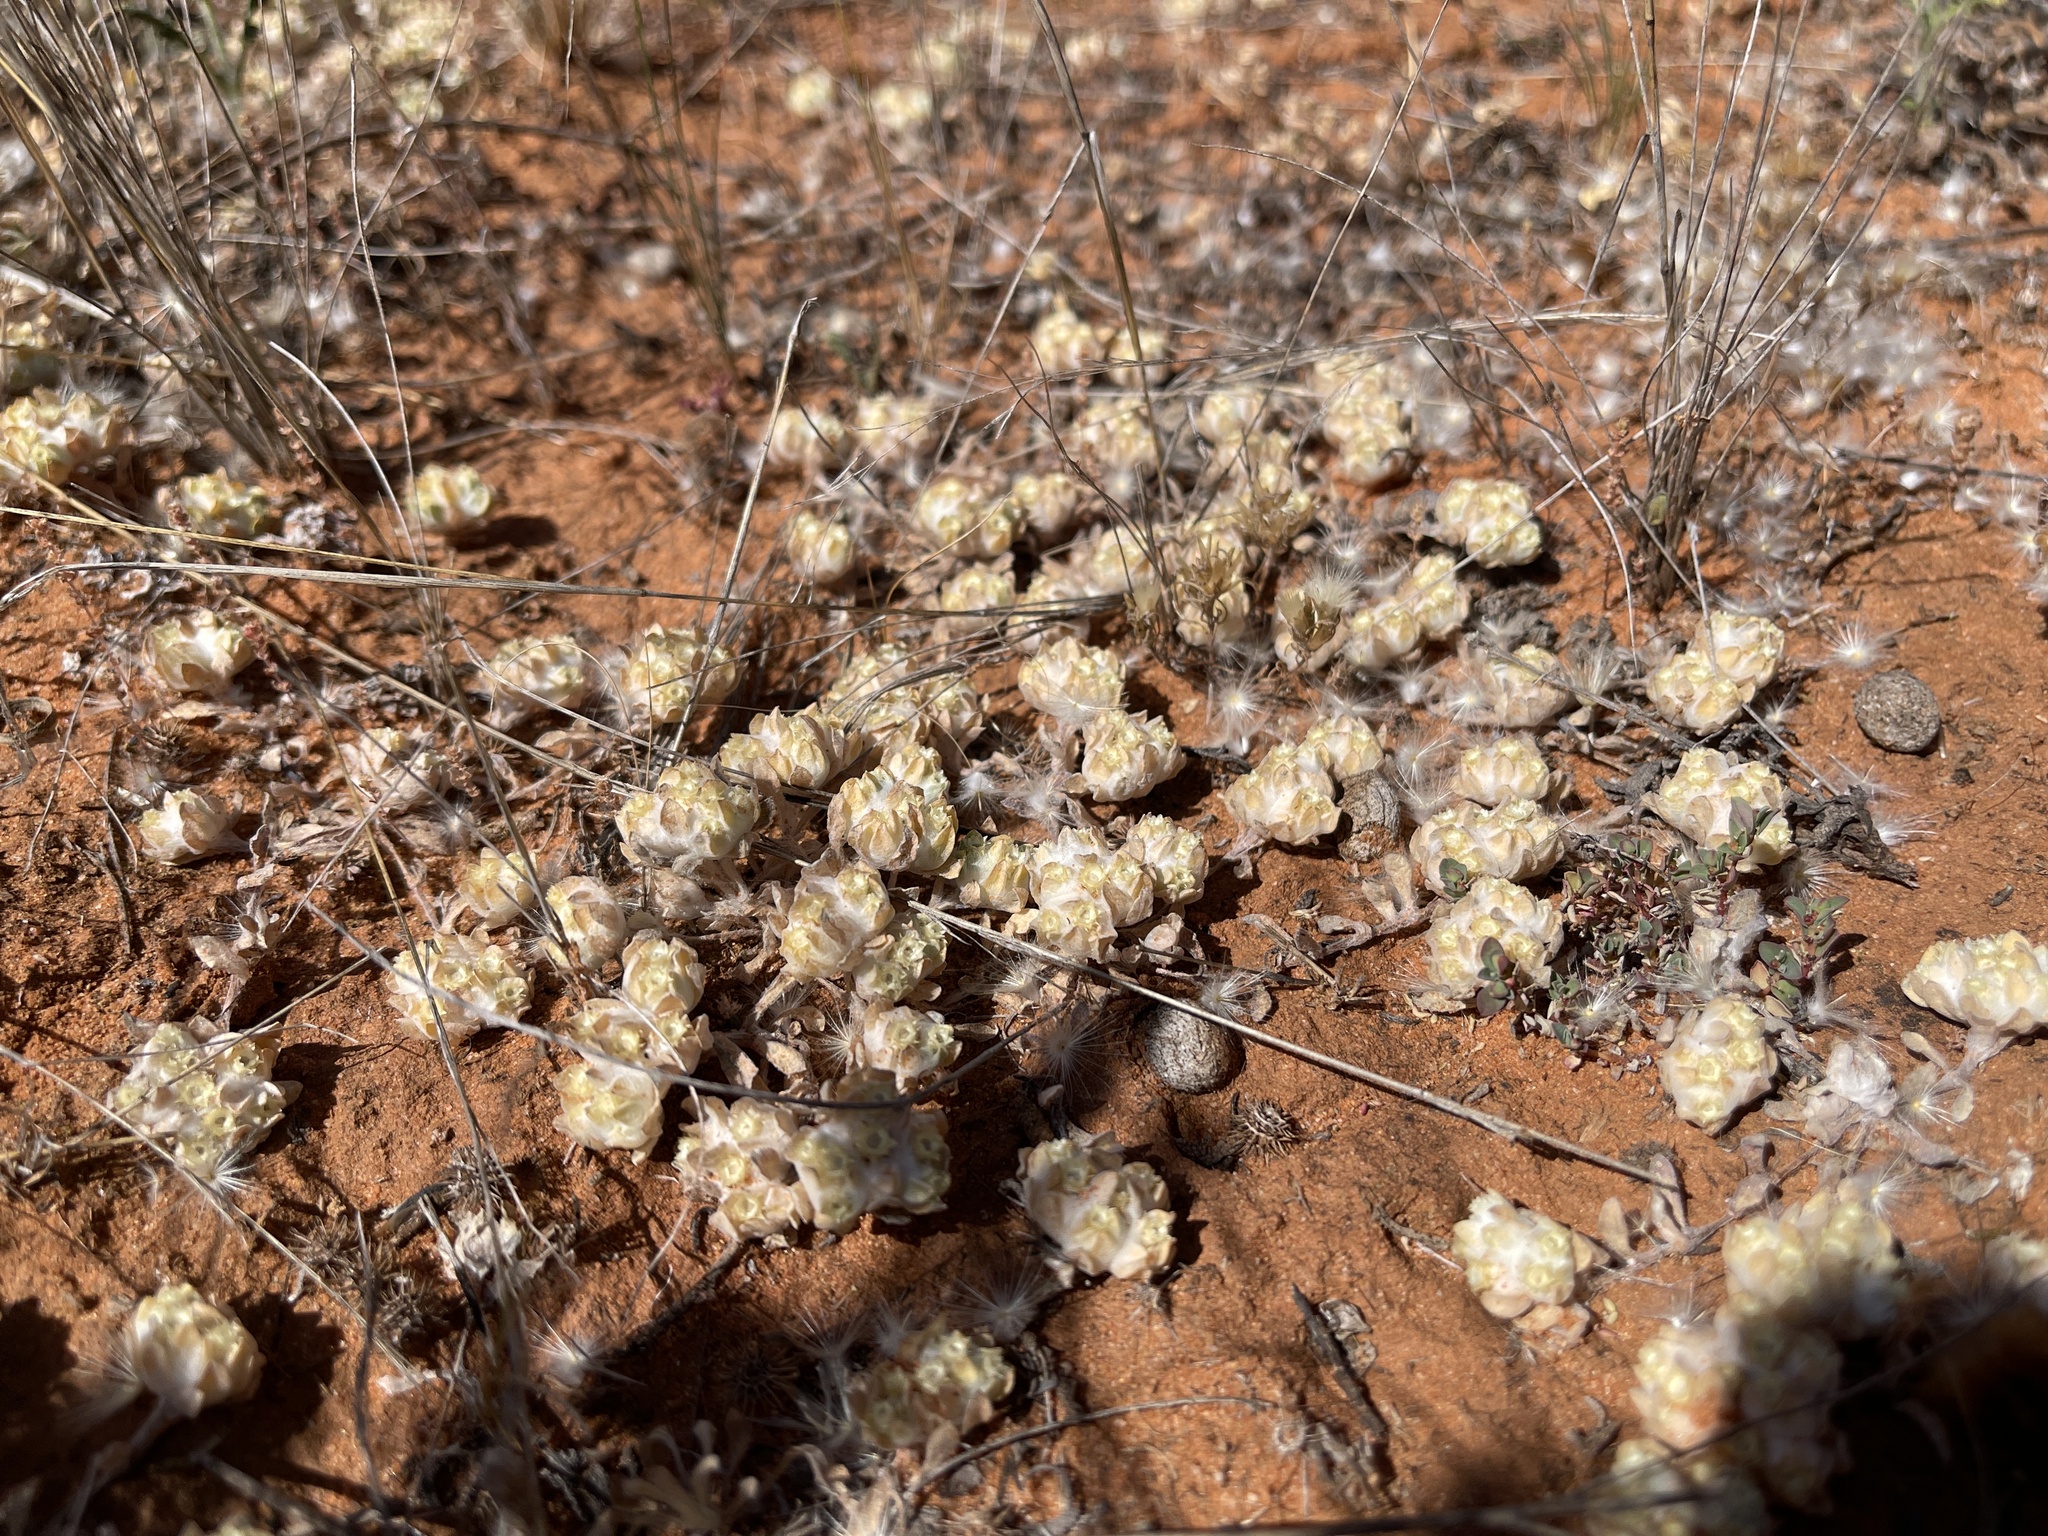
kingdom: Plantae
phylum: Tracheophyta
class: Magnoliopsida
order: Asterales
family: Asteraceae
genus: Actinobole
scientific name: Actinobole uliginosum
